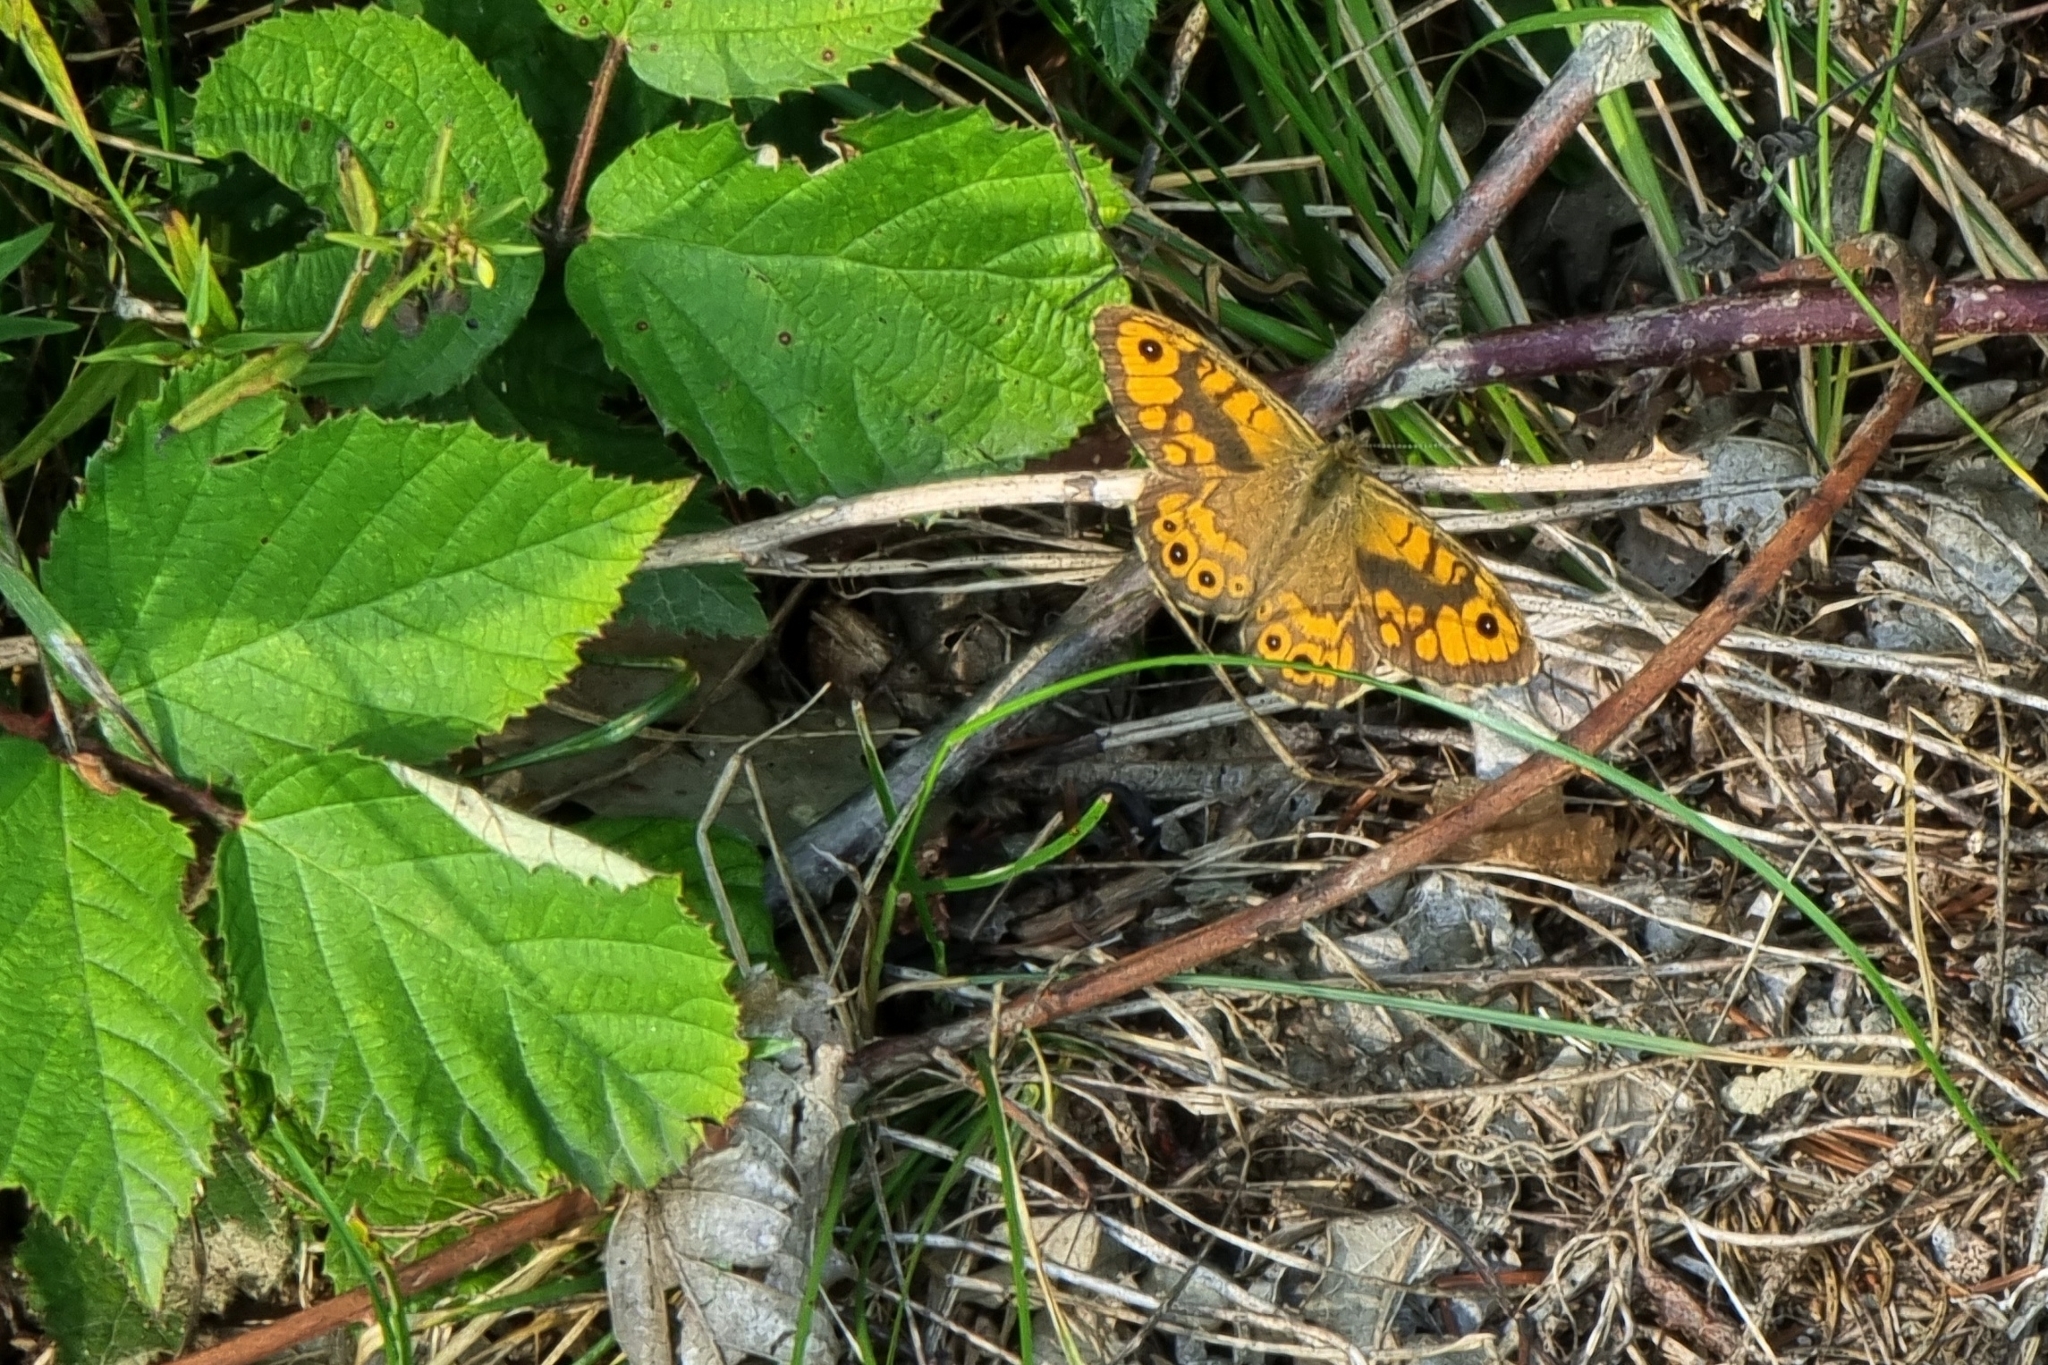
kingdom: Animalia
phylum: Arthropoda
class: Insecta
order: Lepidoptera
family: Nymphalidae
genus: Pararge
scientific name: Pararge Lasiommata megera
